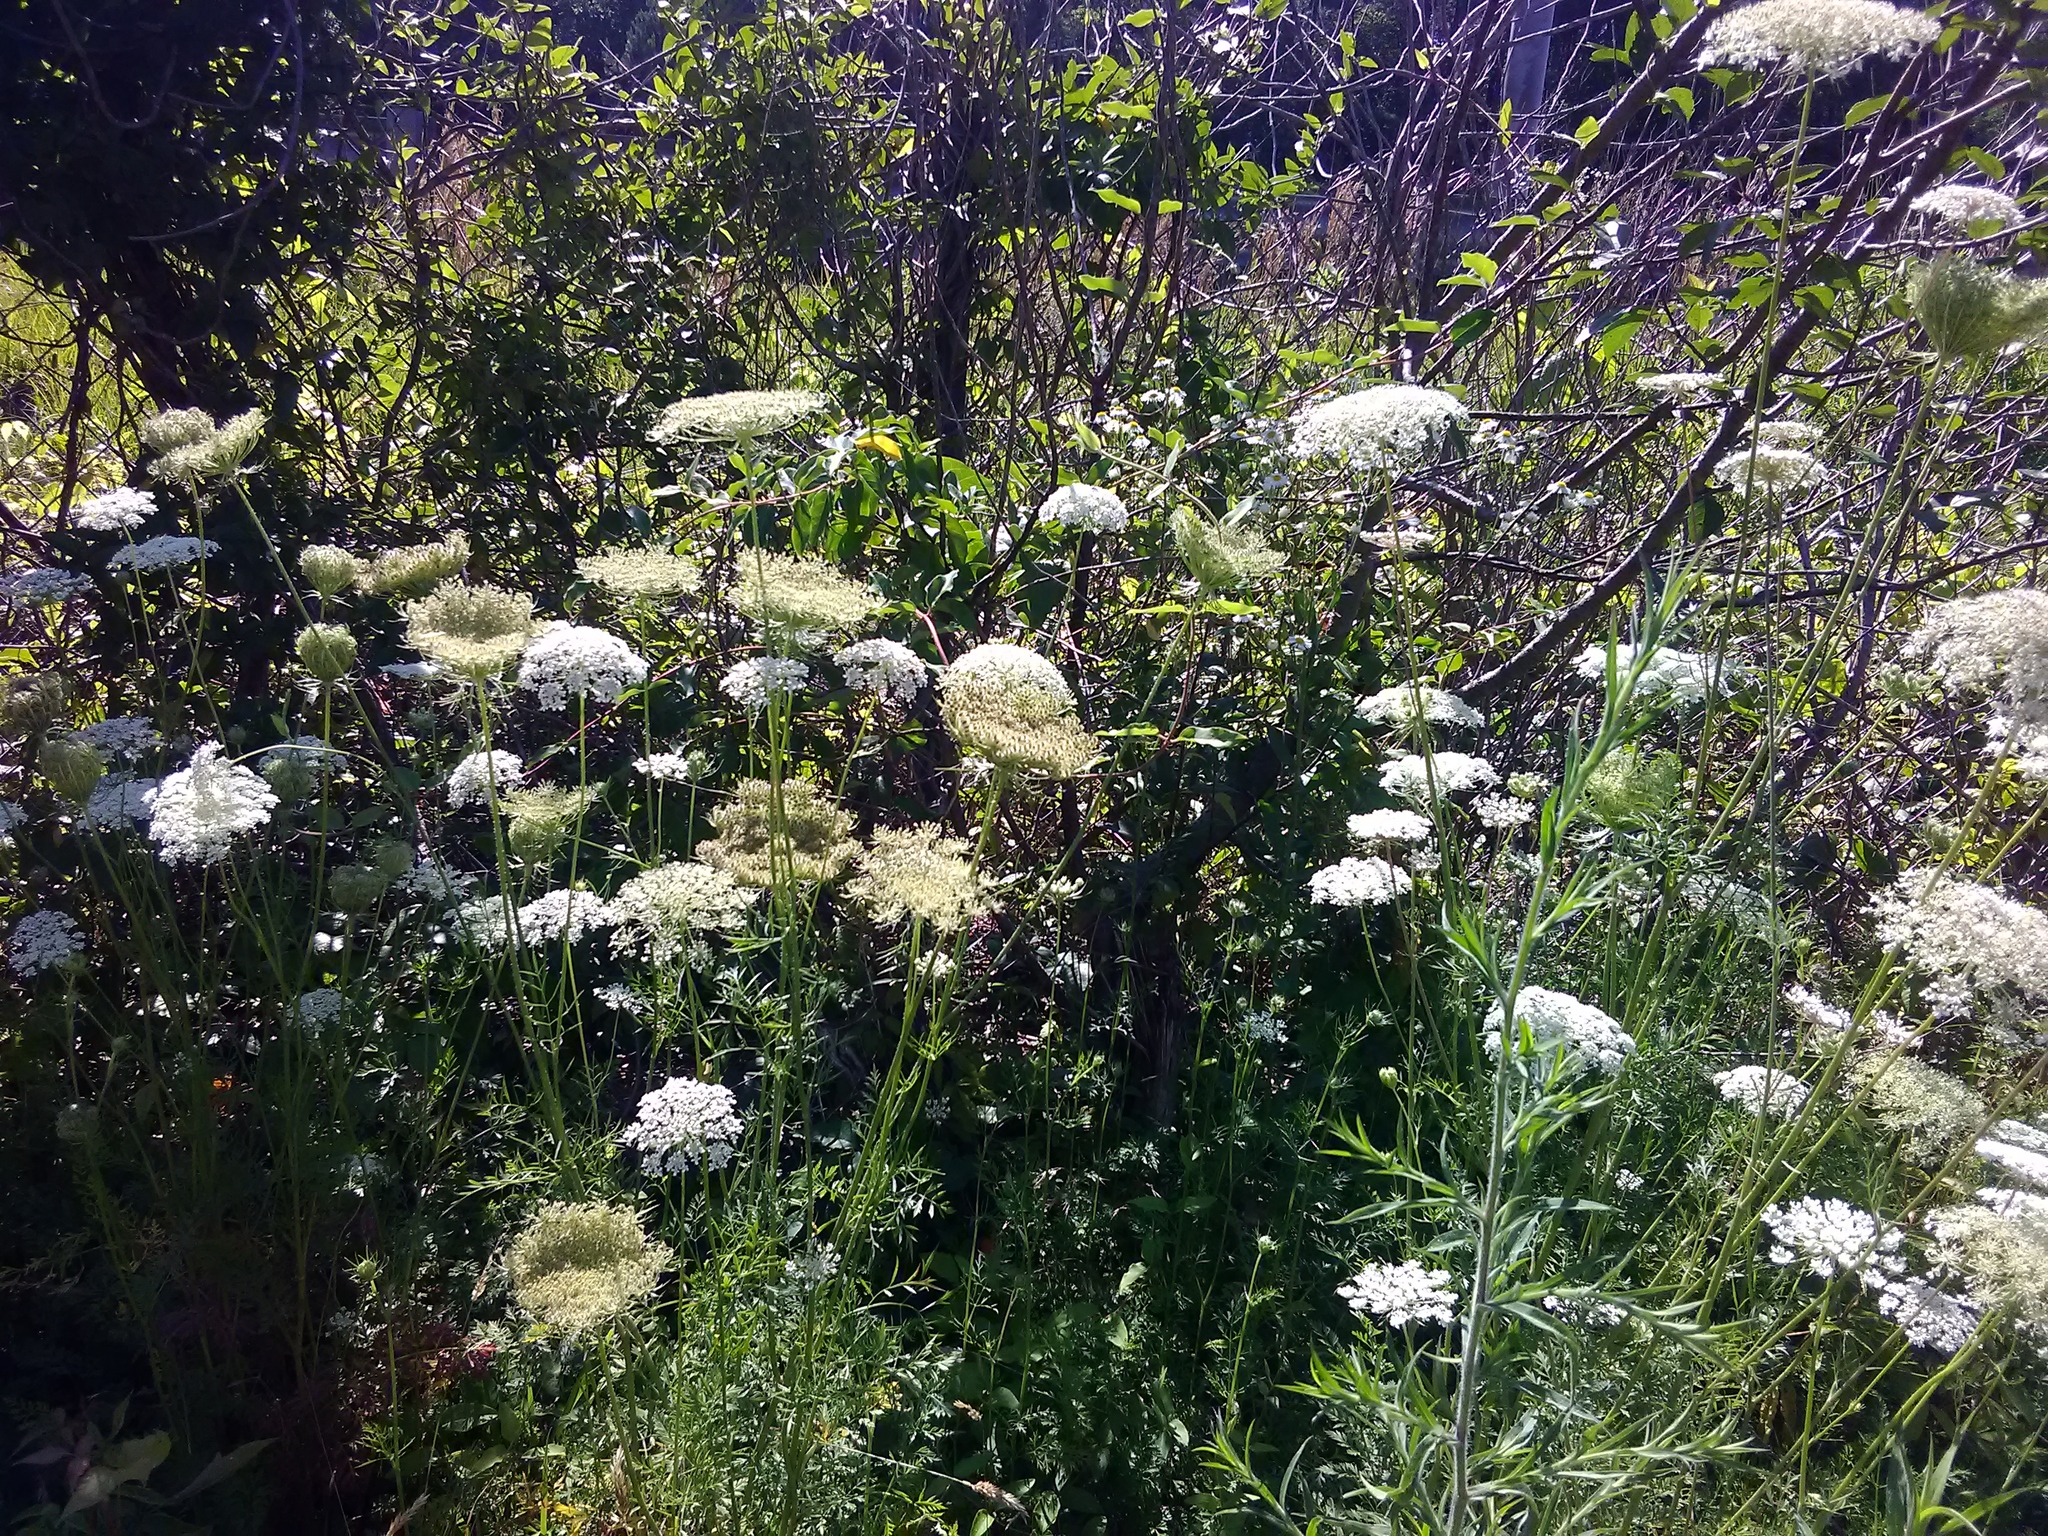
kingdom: Plantae
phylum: Tracheophyta
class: Magnoliopsida
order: Apiales
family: Apiaceae
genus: Daucus
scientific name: Daucus carota
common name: Wild carrot
